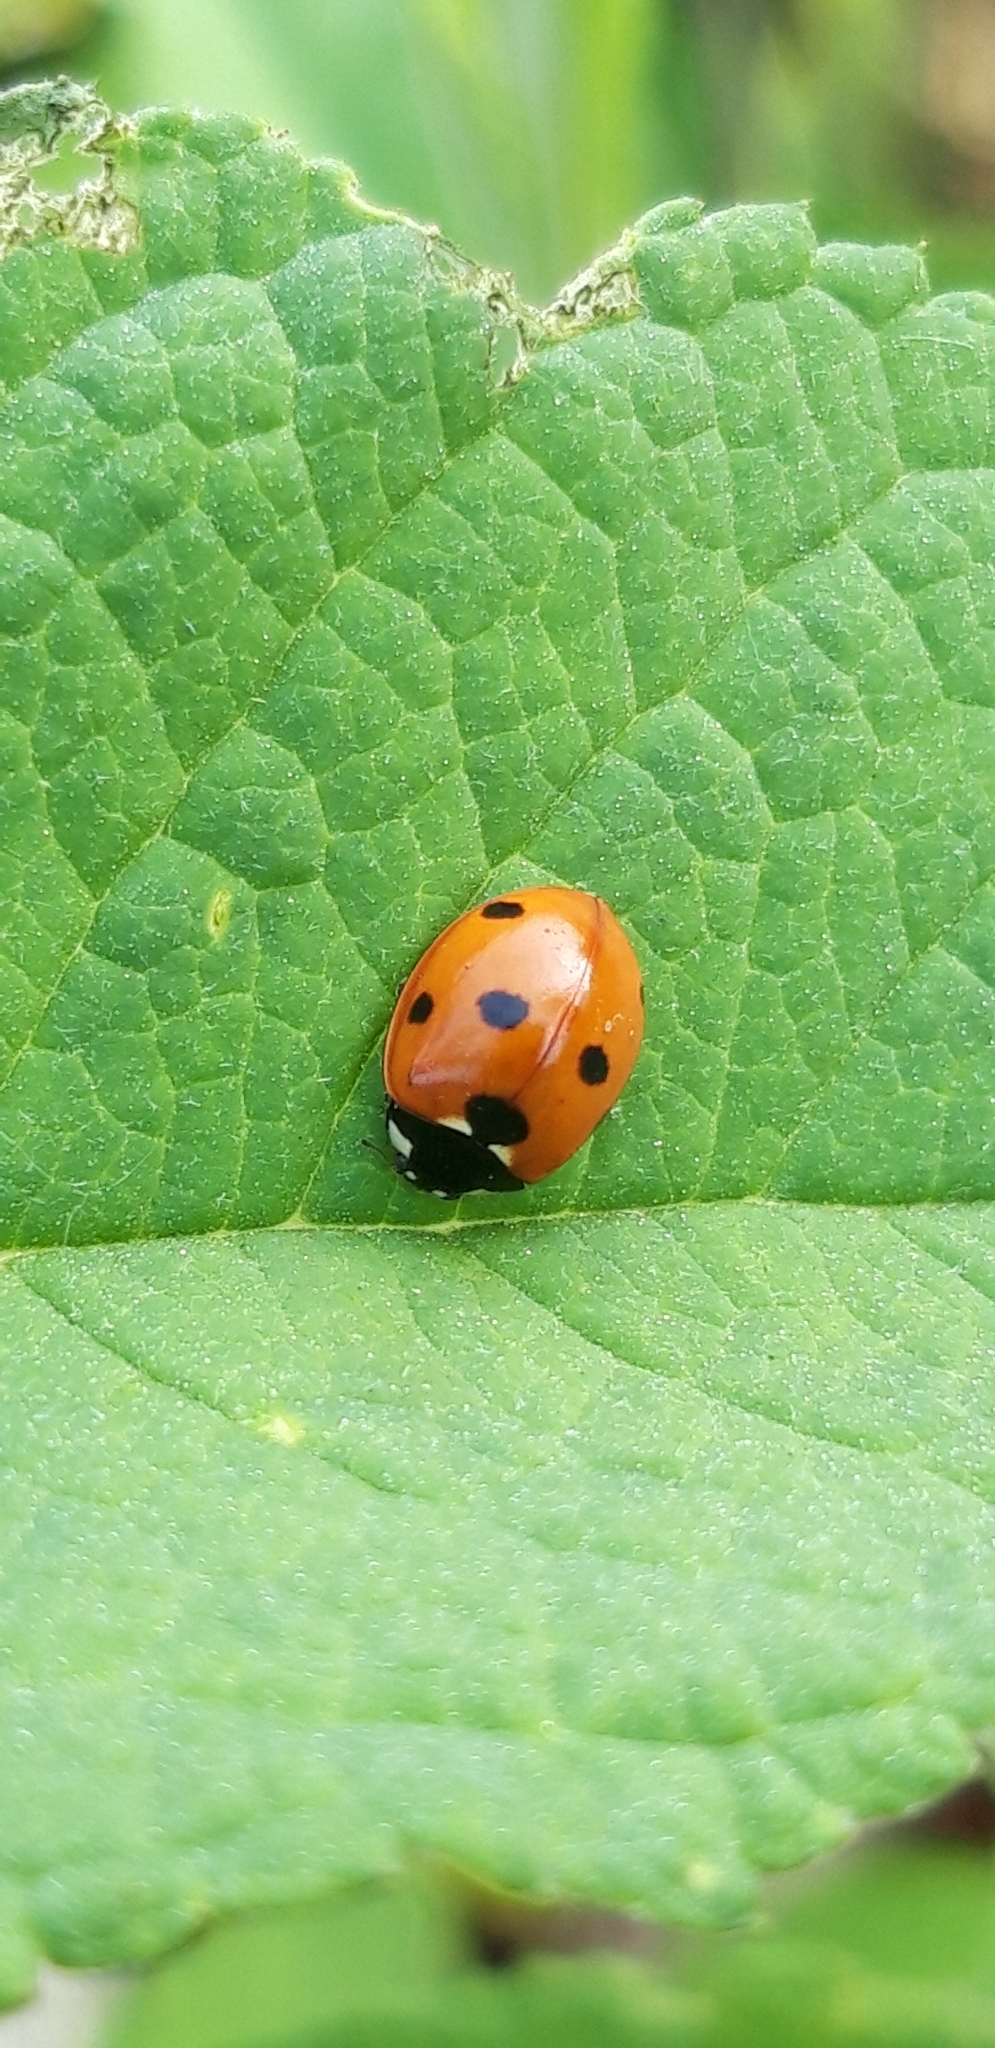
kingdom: Animalia
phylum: Arthropoda
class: Insecta
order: Coleoptera
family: Coccinellidae
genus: Coccinella
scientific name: Coccinella septempunctata
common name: Sevenspotted lady beetle
